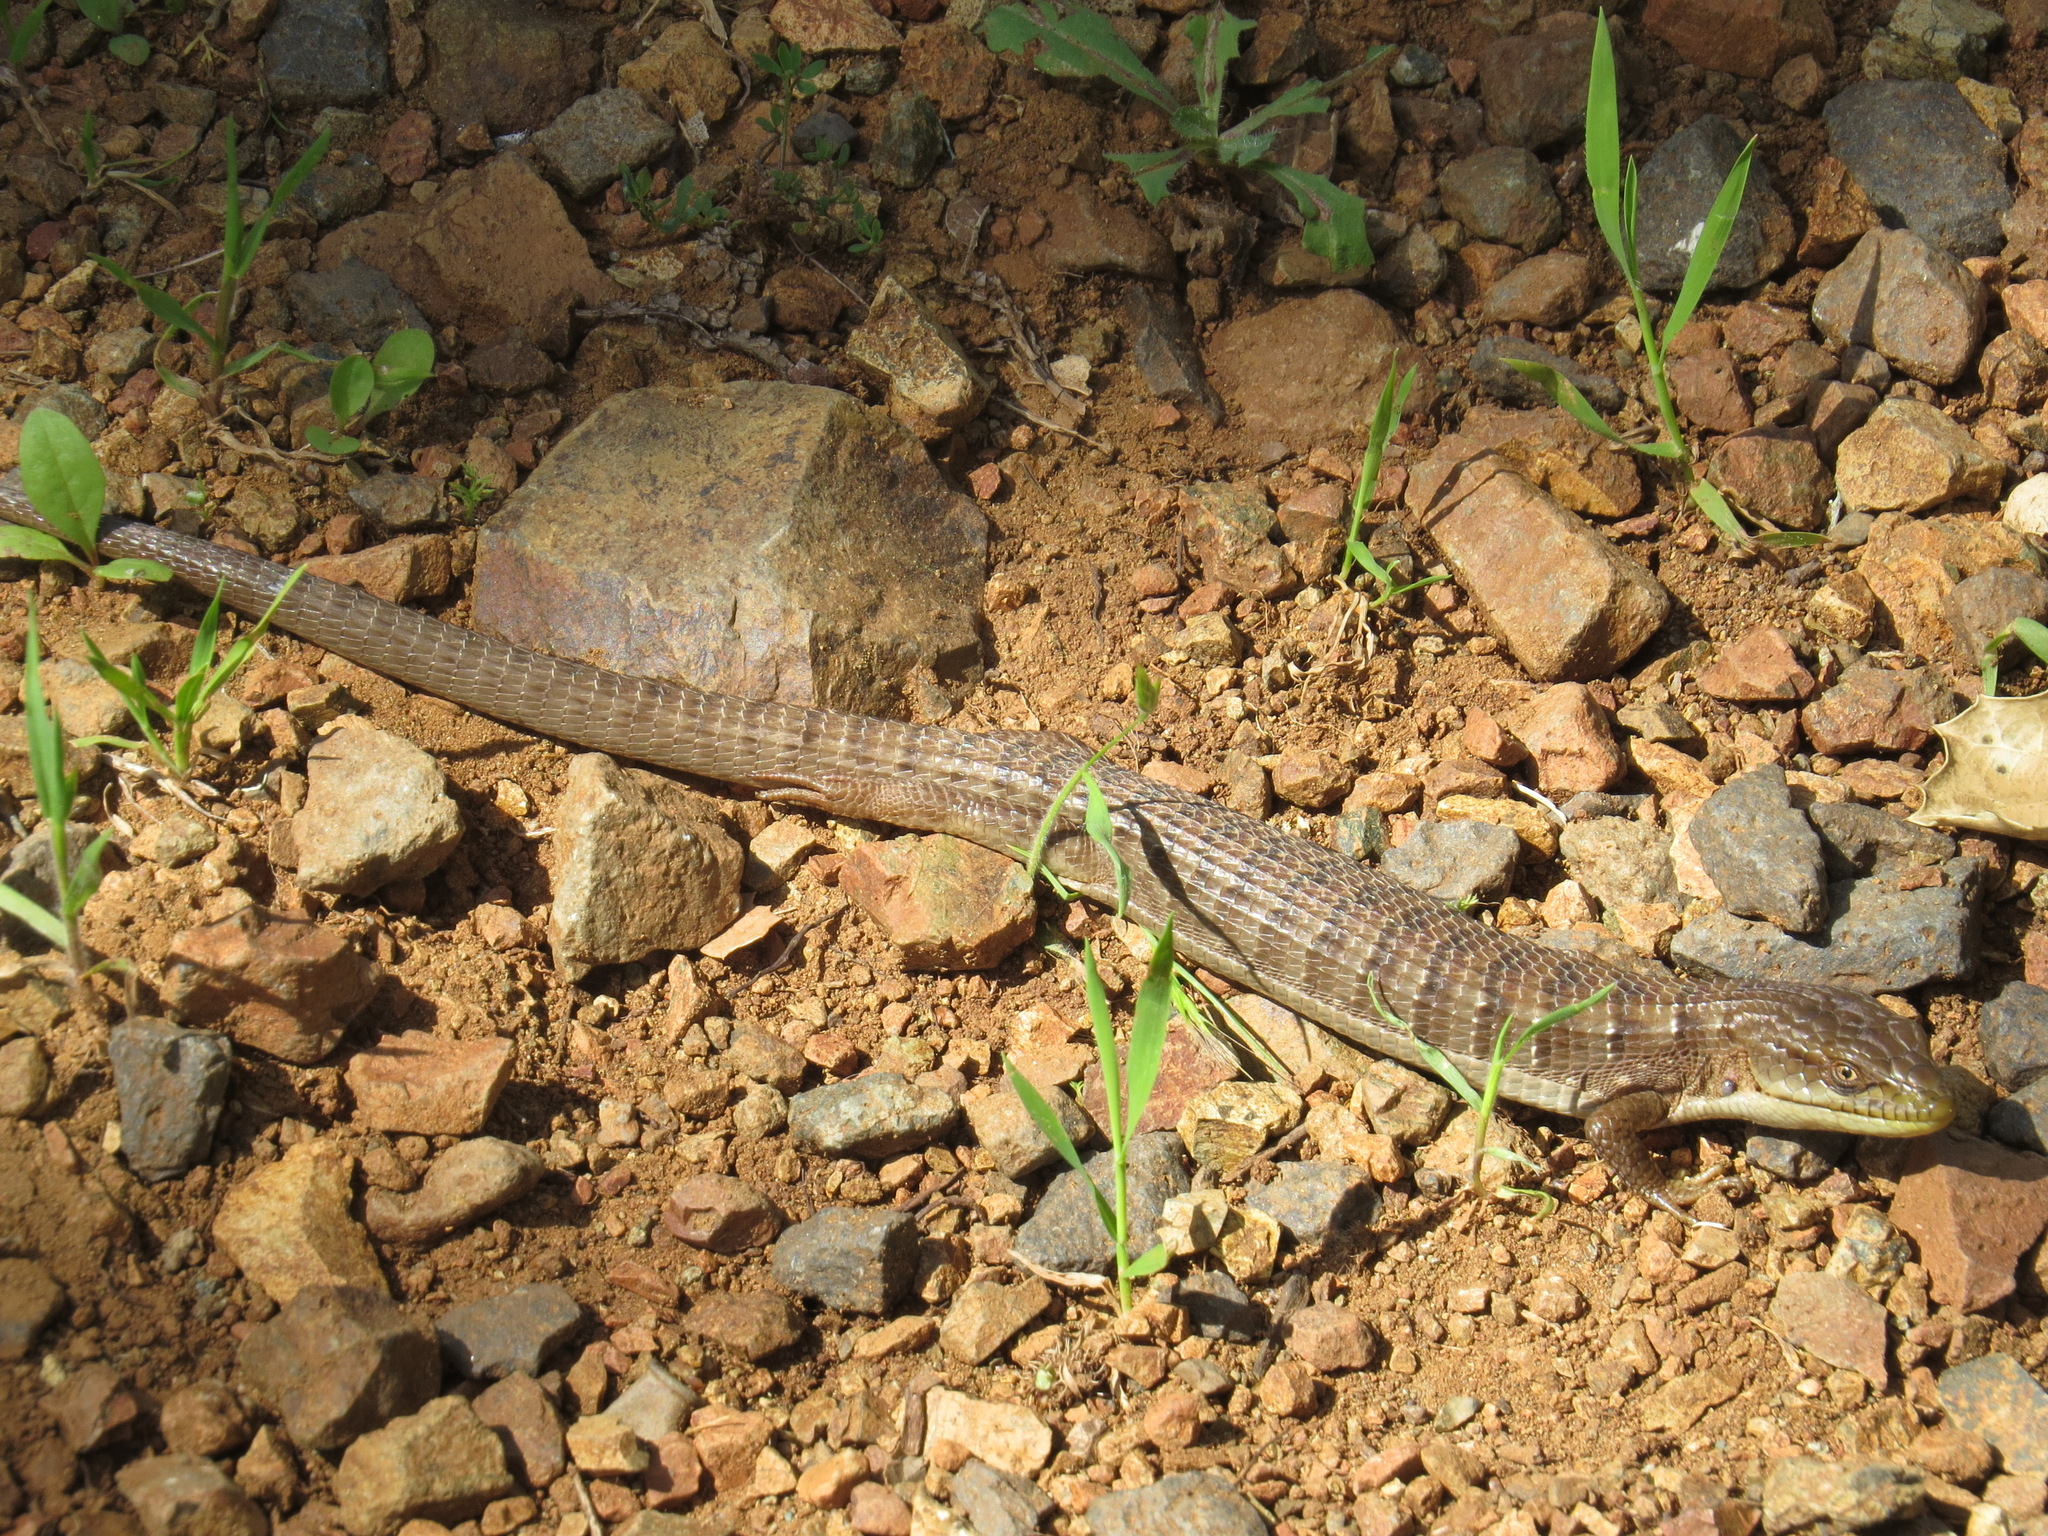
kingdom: Animalia
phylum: Chordata
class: Squamata
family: Anguidae
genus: Elgaria
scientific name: Elgaria multicarinata
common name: Southern alligator lizard
